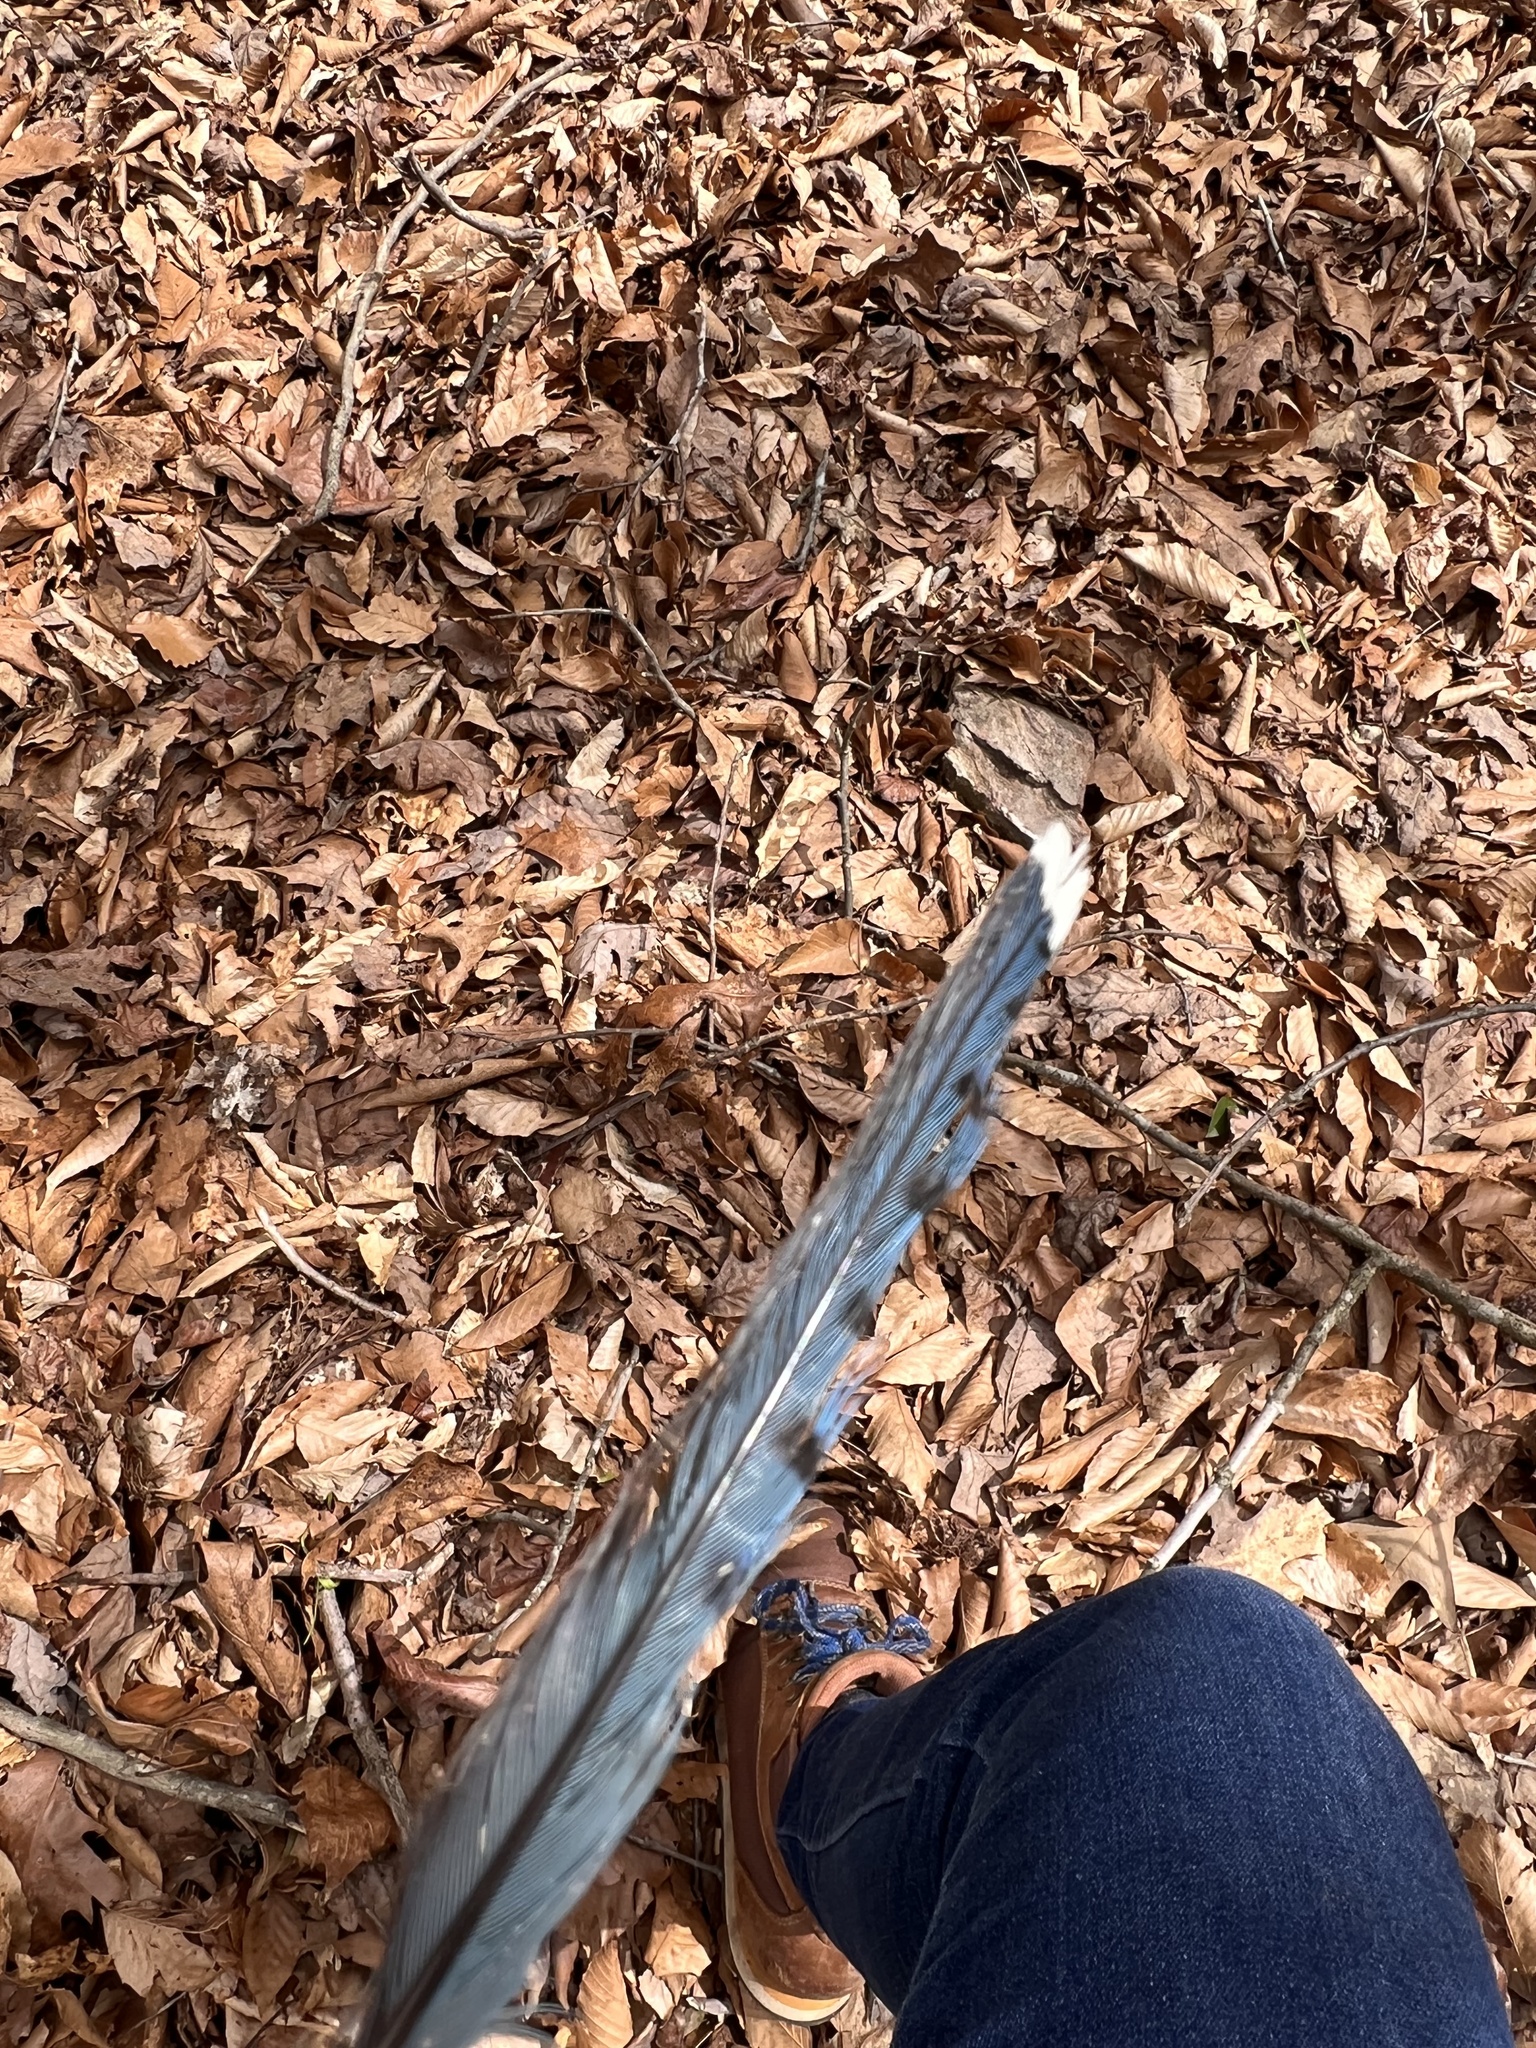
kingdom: Animalia
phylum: Chordata
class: Aves
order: Passeriformes
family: Corvidae
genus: Cyanocitta
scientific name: Cyanocitta cristata
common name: Blue jay
